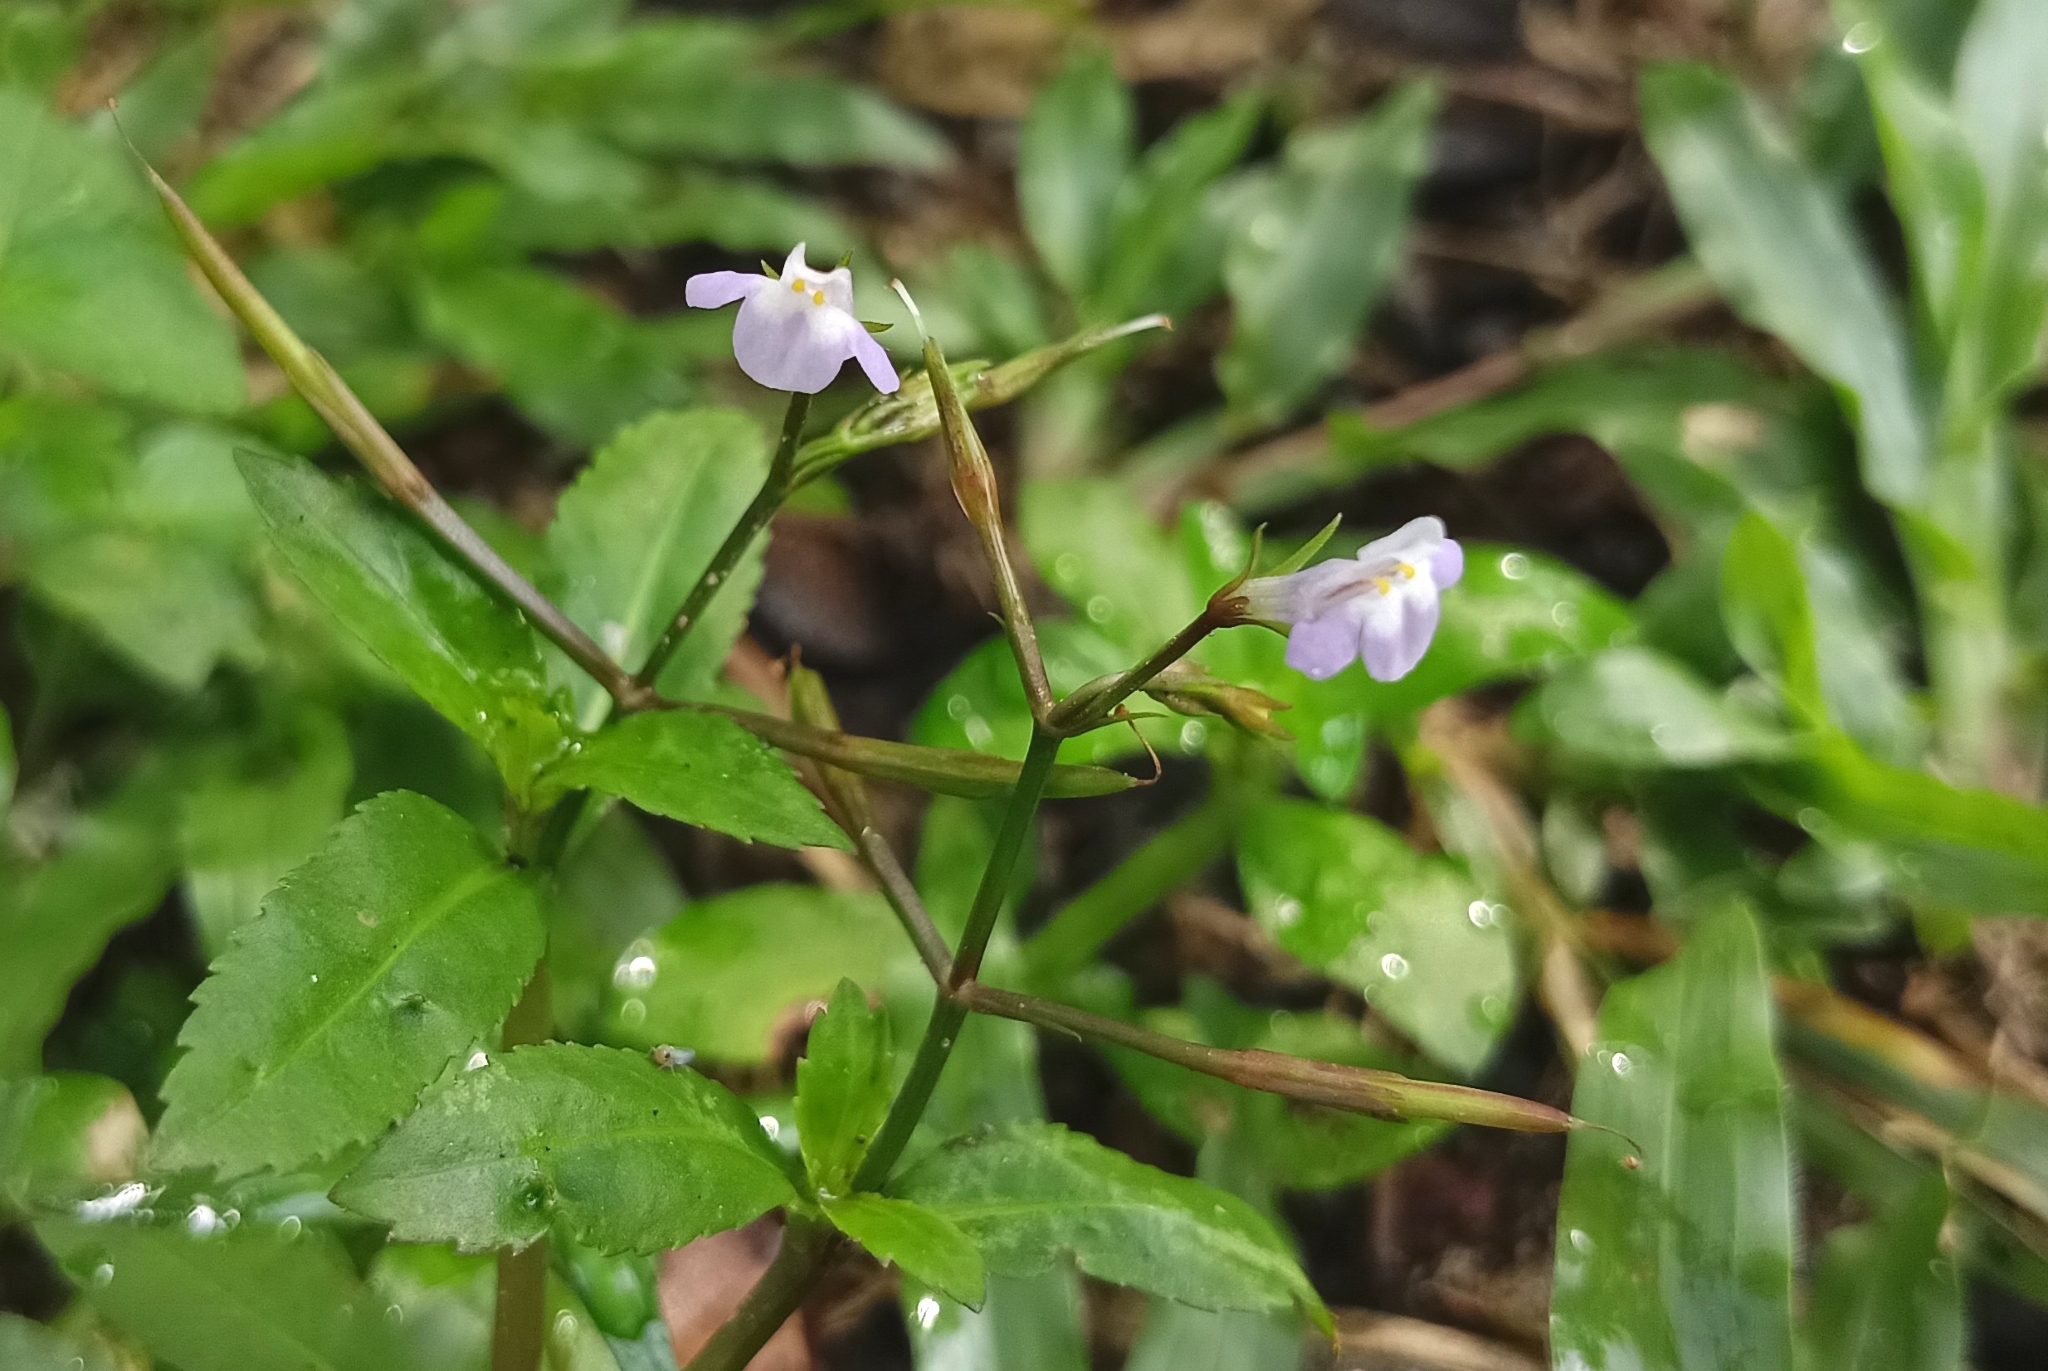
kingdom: Plantae
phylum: Tracheophyta
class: Magnoliopsida
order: Lamiales
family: Linderniaceae
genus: Bonnaya
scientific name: Bonnaya sanpabloensis
